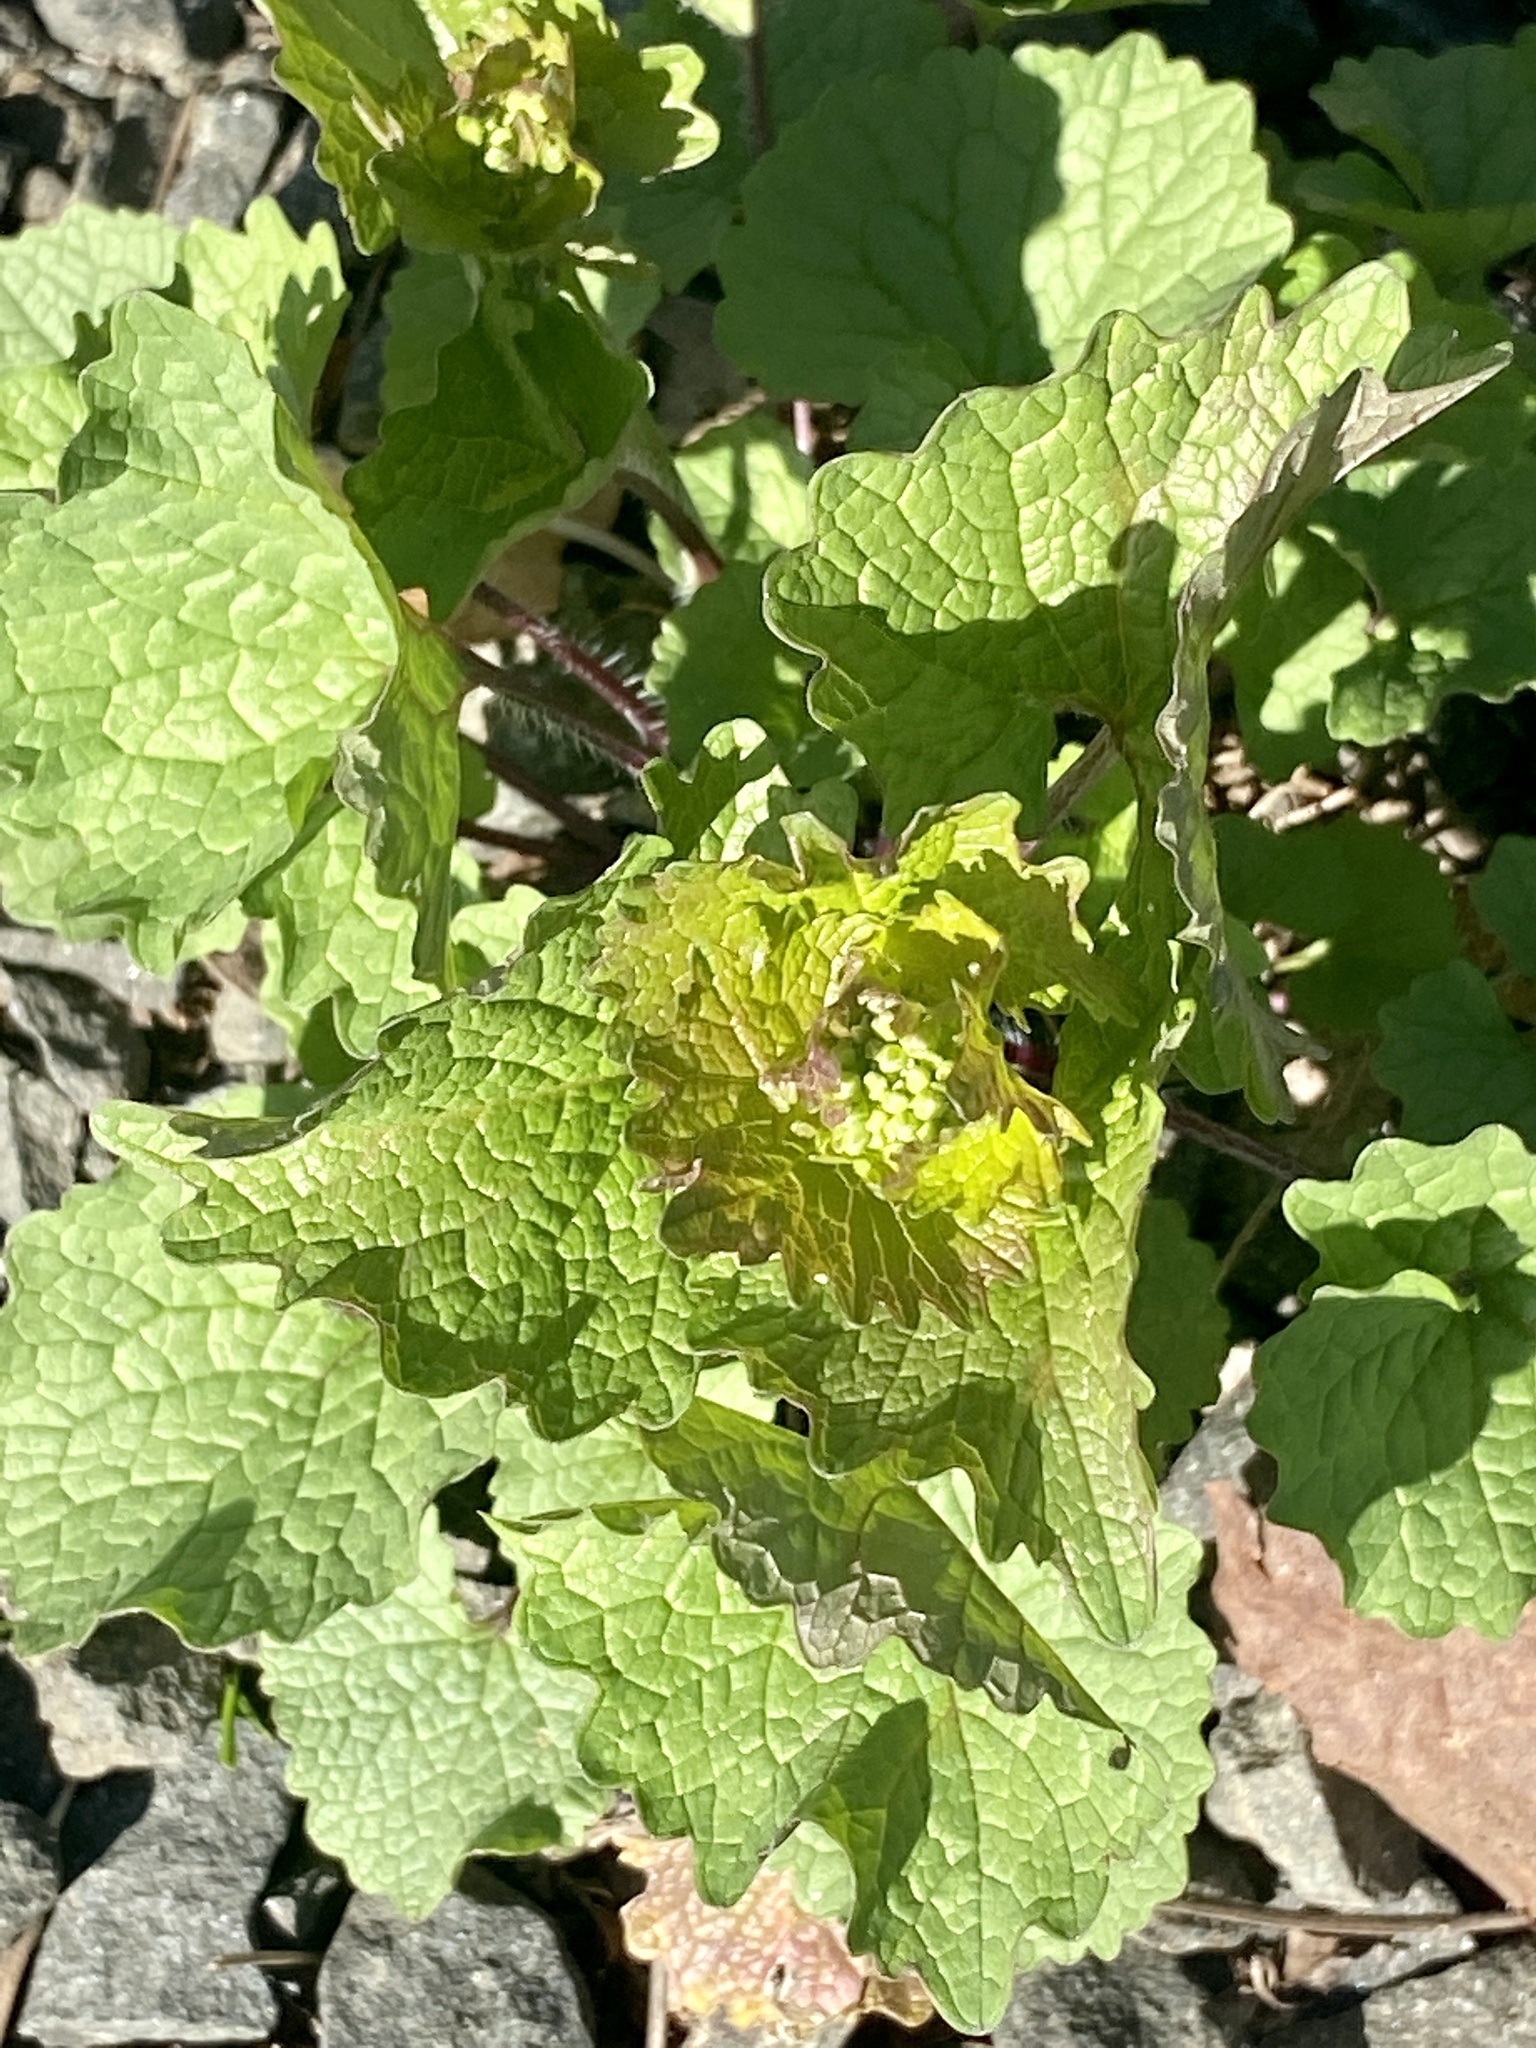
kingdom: Plantae
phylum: Tracheophyta
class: Magnoliopsida
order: Brassicales
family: Brassicaceae
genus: Alliaria
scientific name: Alliaria petiolata
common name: Garlic mustard
